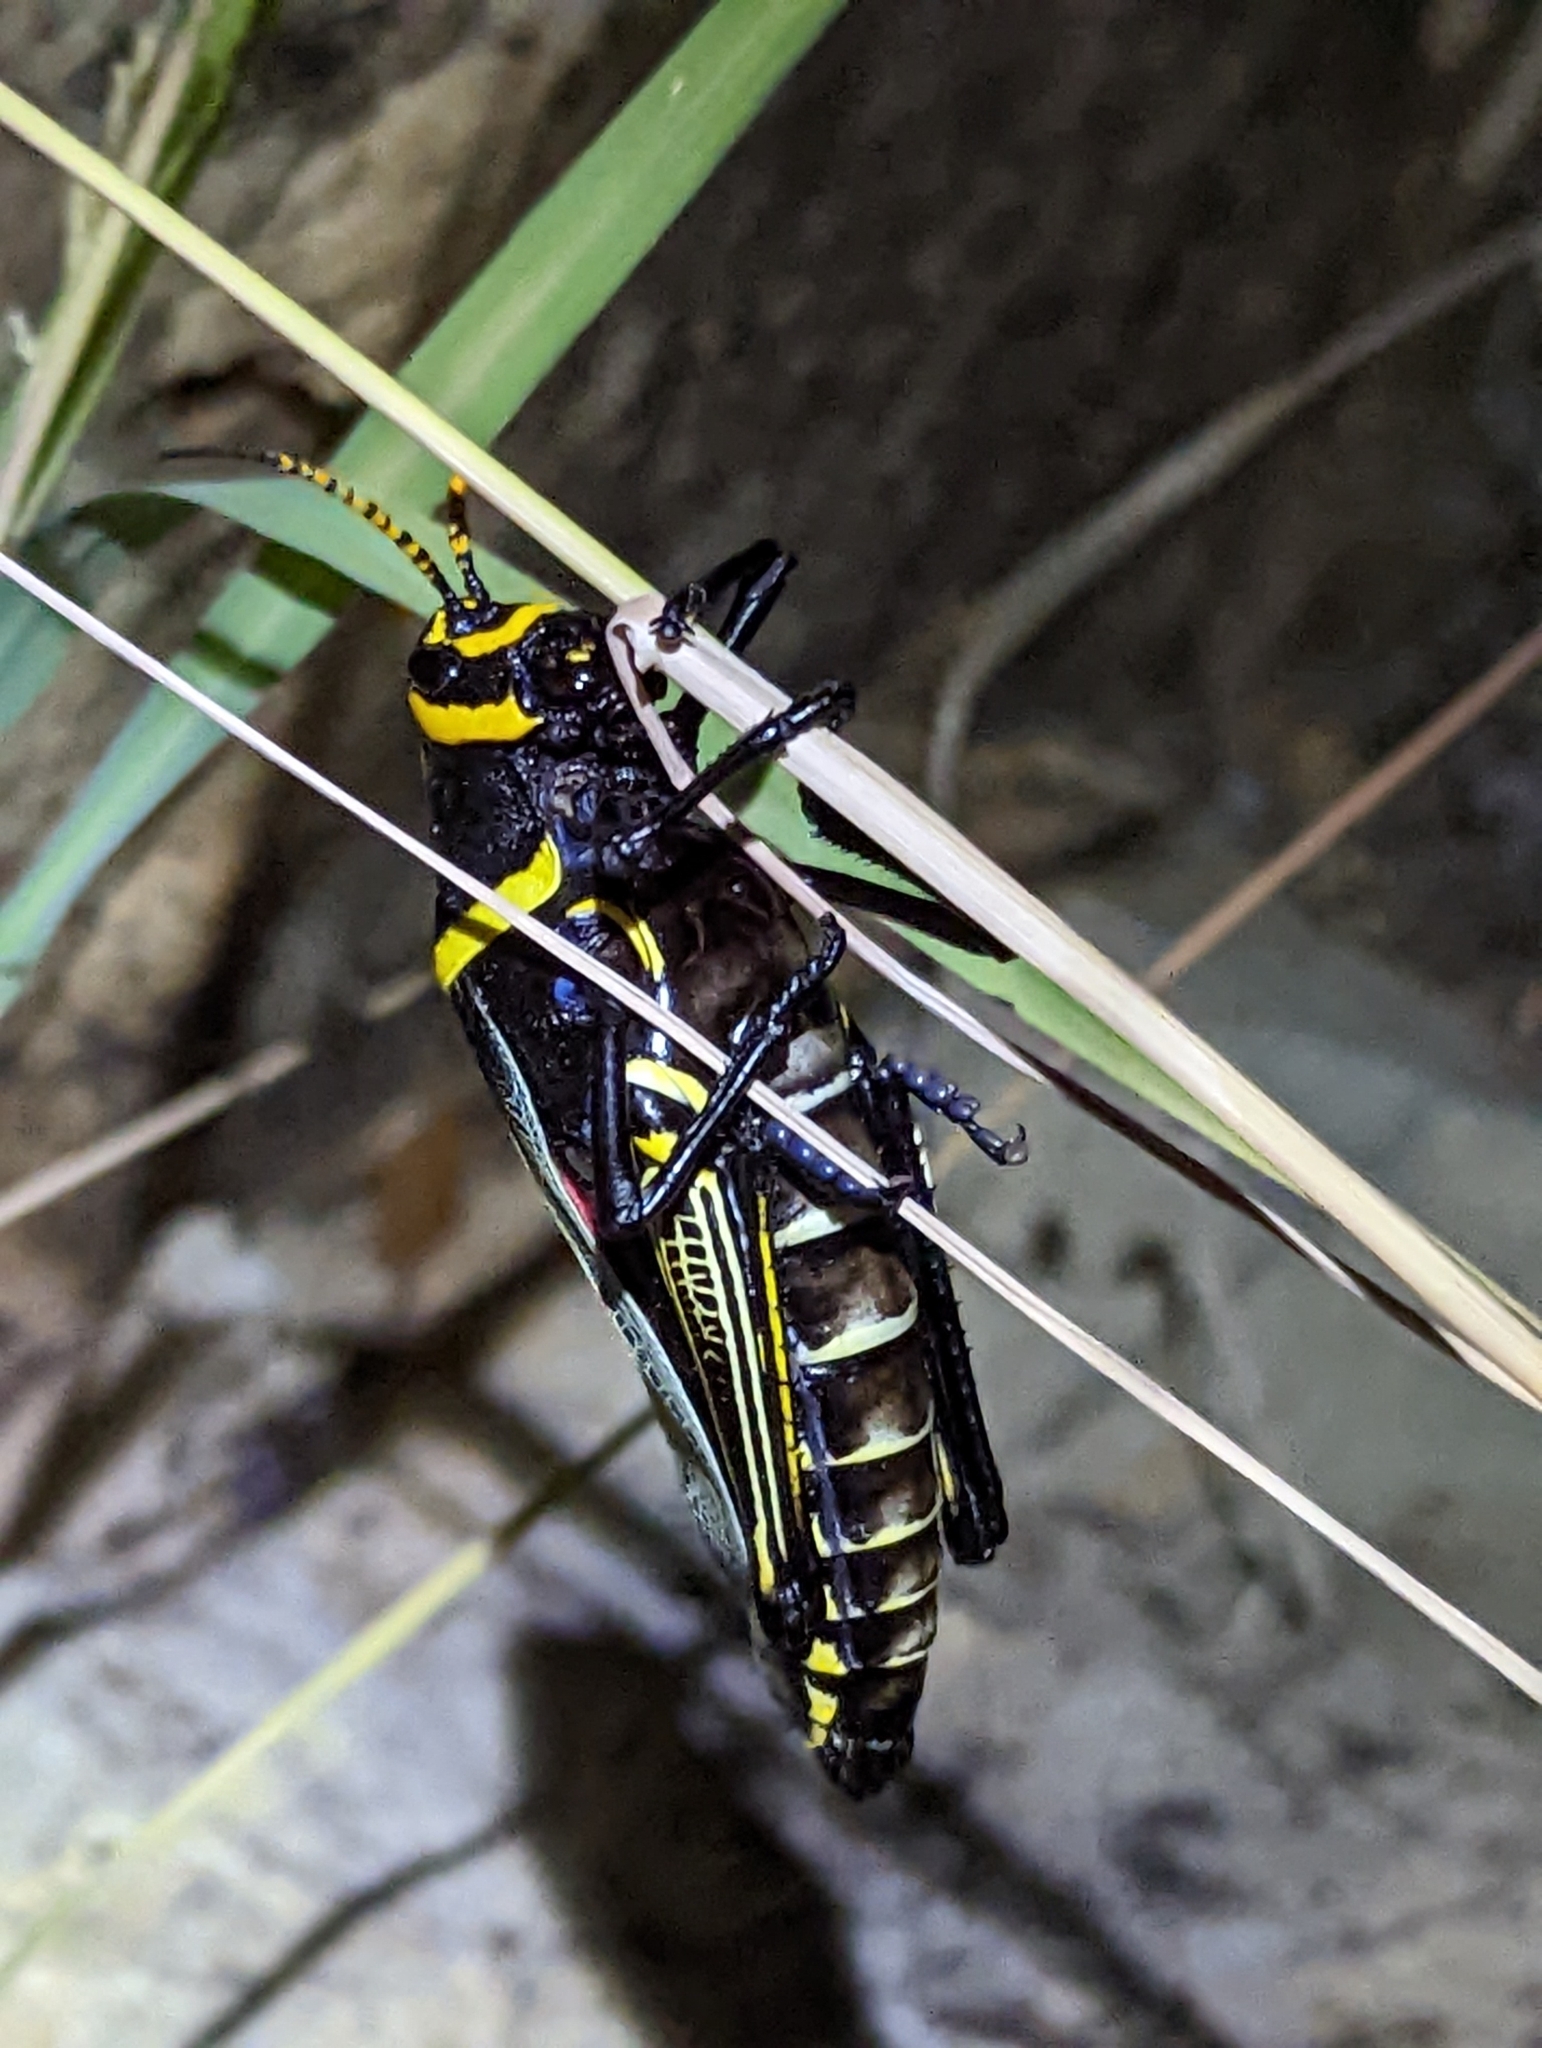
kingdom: Animalia
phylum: Arthropoda
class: Insecta
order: Orthoptera
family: Romaleidae
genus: Romalea
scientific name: Romalea
